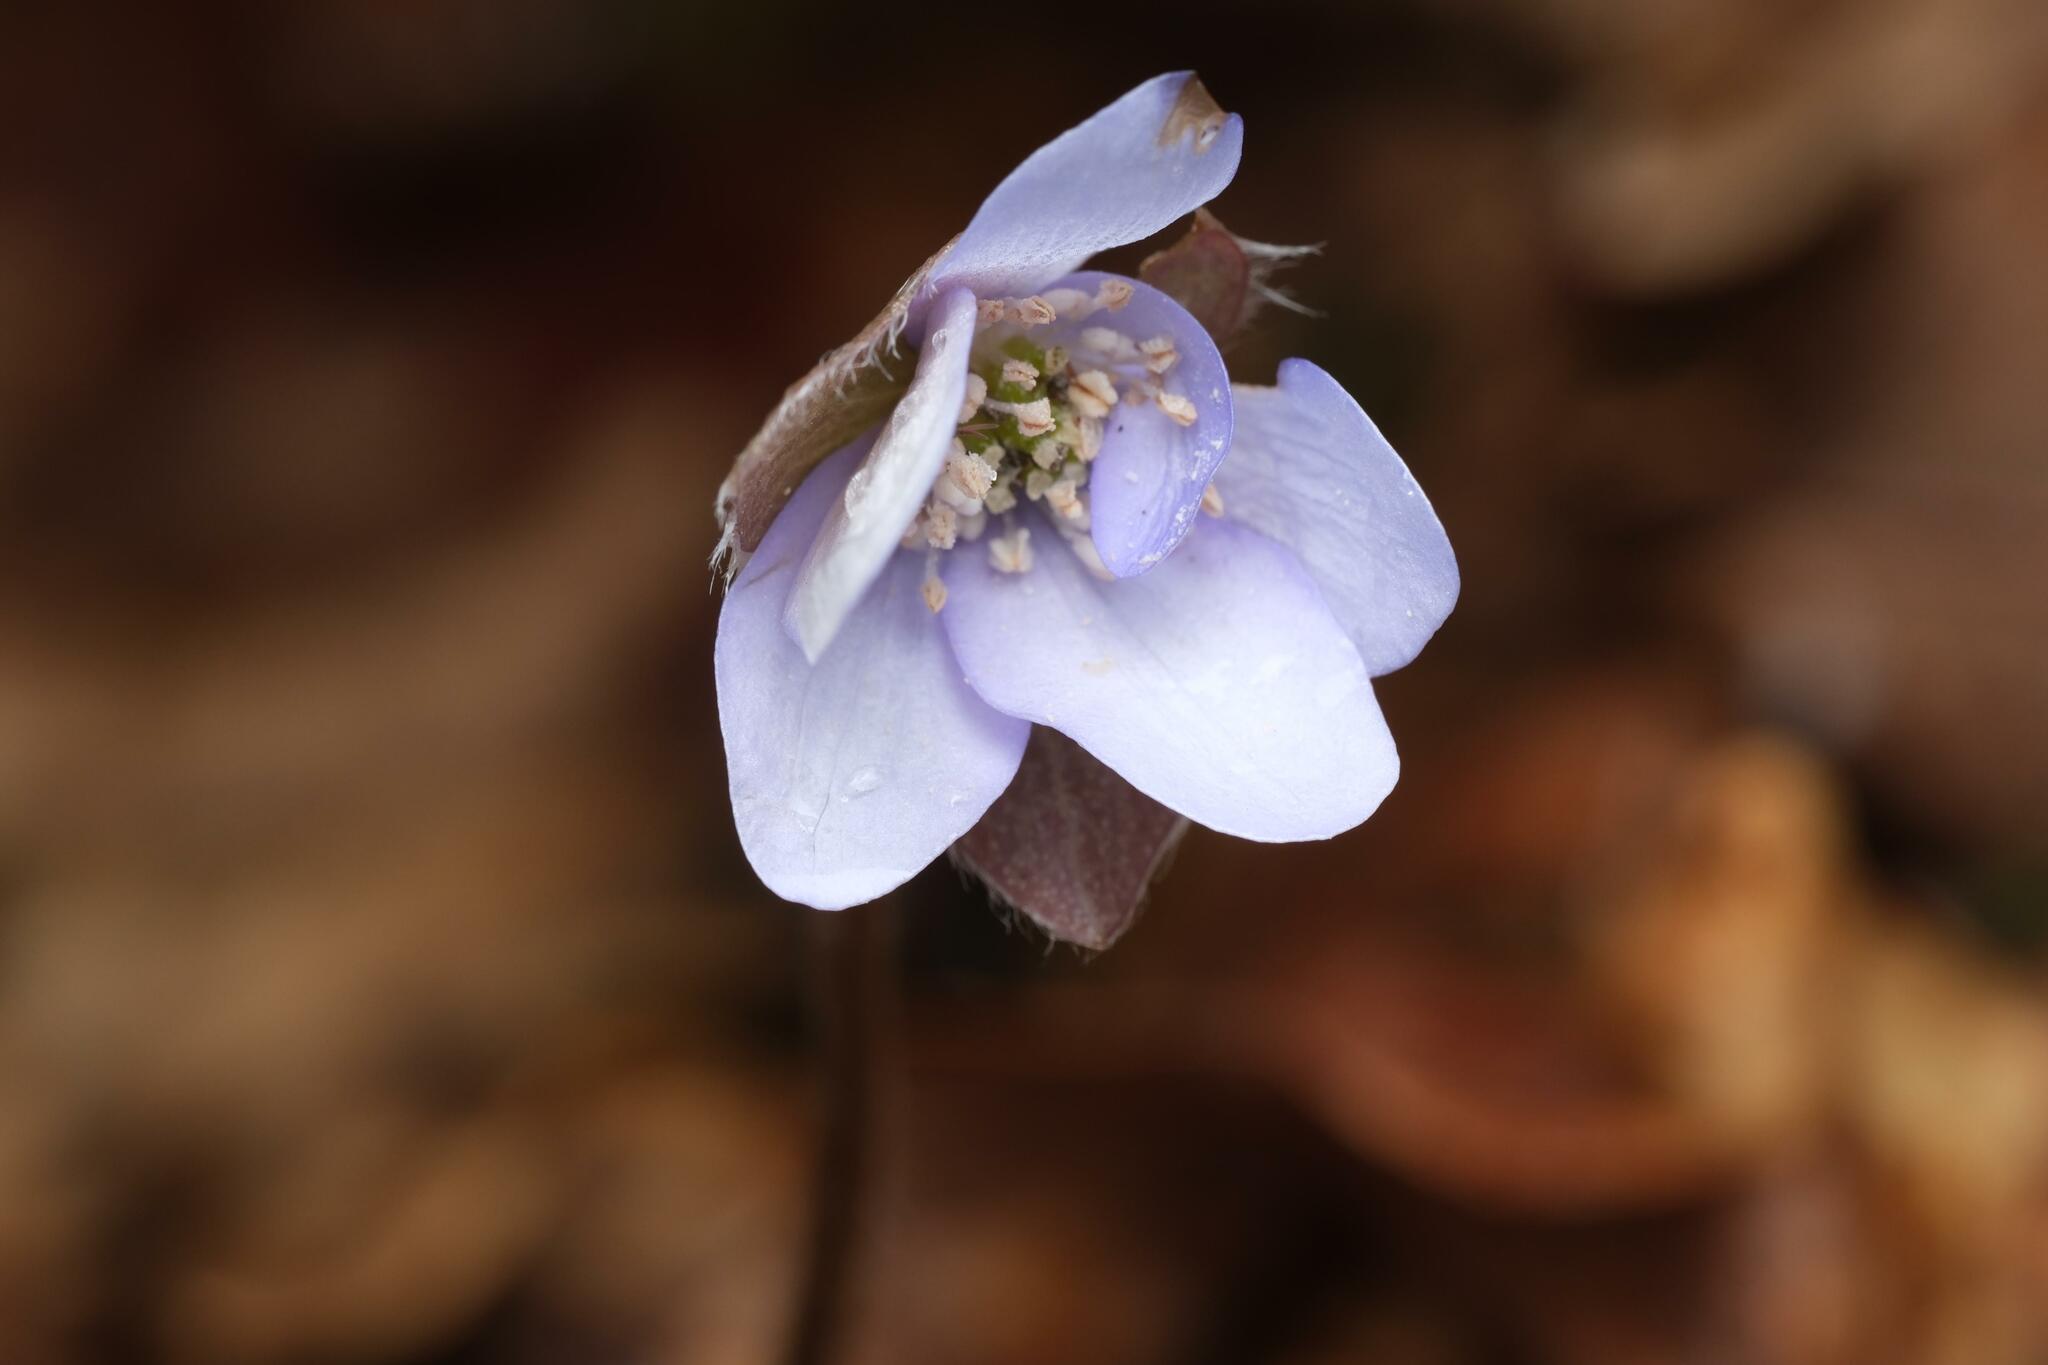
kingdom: Plantae
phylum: Tracheophyta
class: Magnoliopsida
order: Ranunculales
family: Ranunculaceae
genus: Hepatica
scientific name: Hepatica nobilis
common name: Liverleaf
